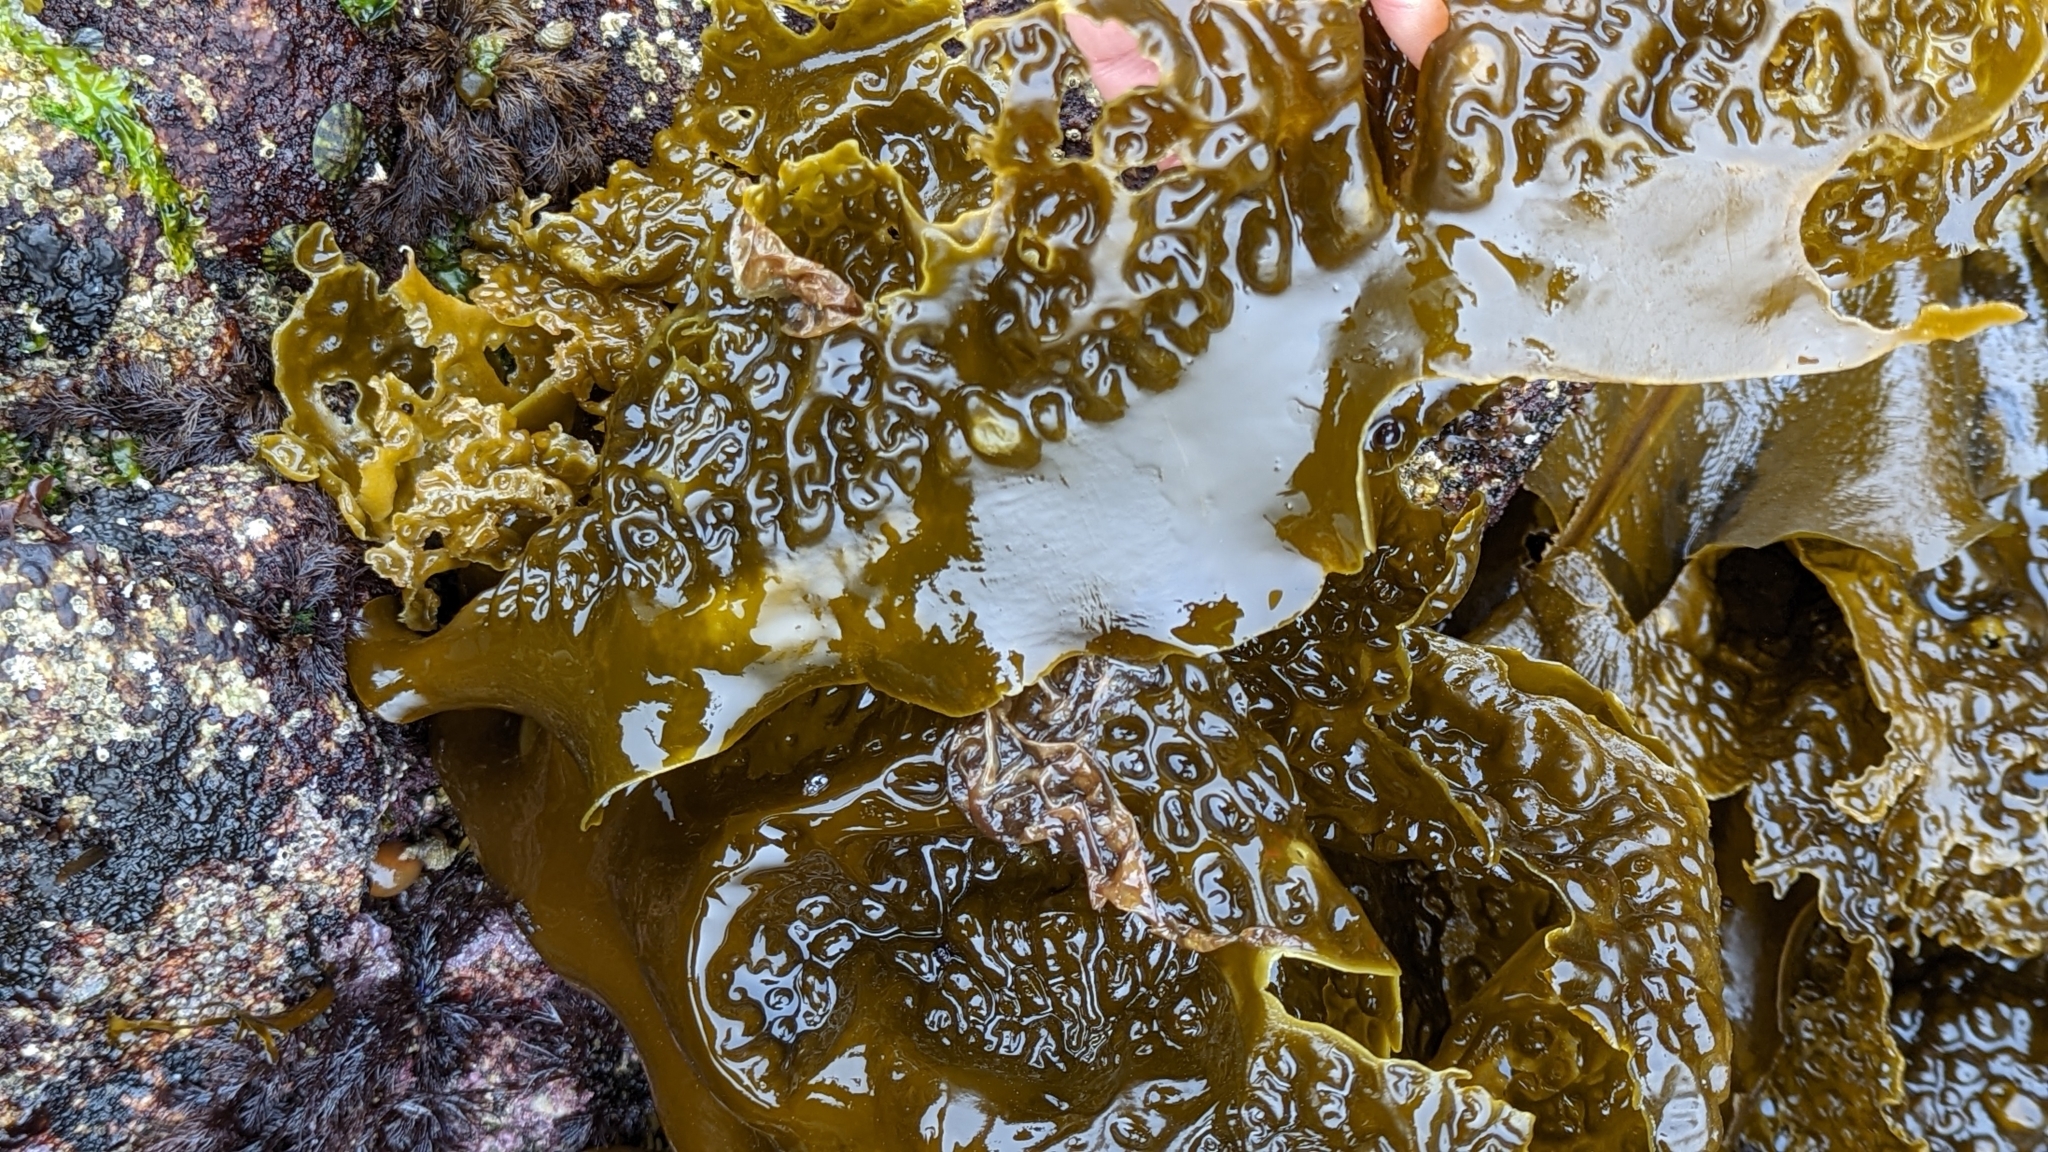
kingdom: Chromista
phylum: Ochrophyta
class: Phaeophyceae
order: Laminariales
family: Laminariaceae
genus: Hedophyllum
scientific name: Hedophyllum sessile
